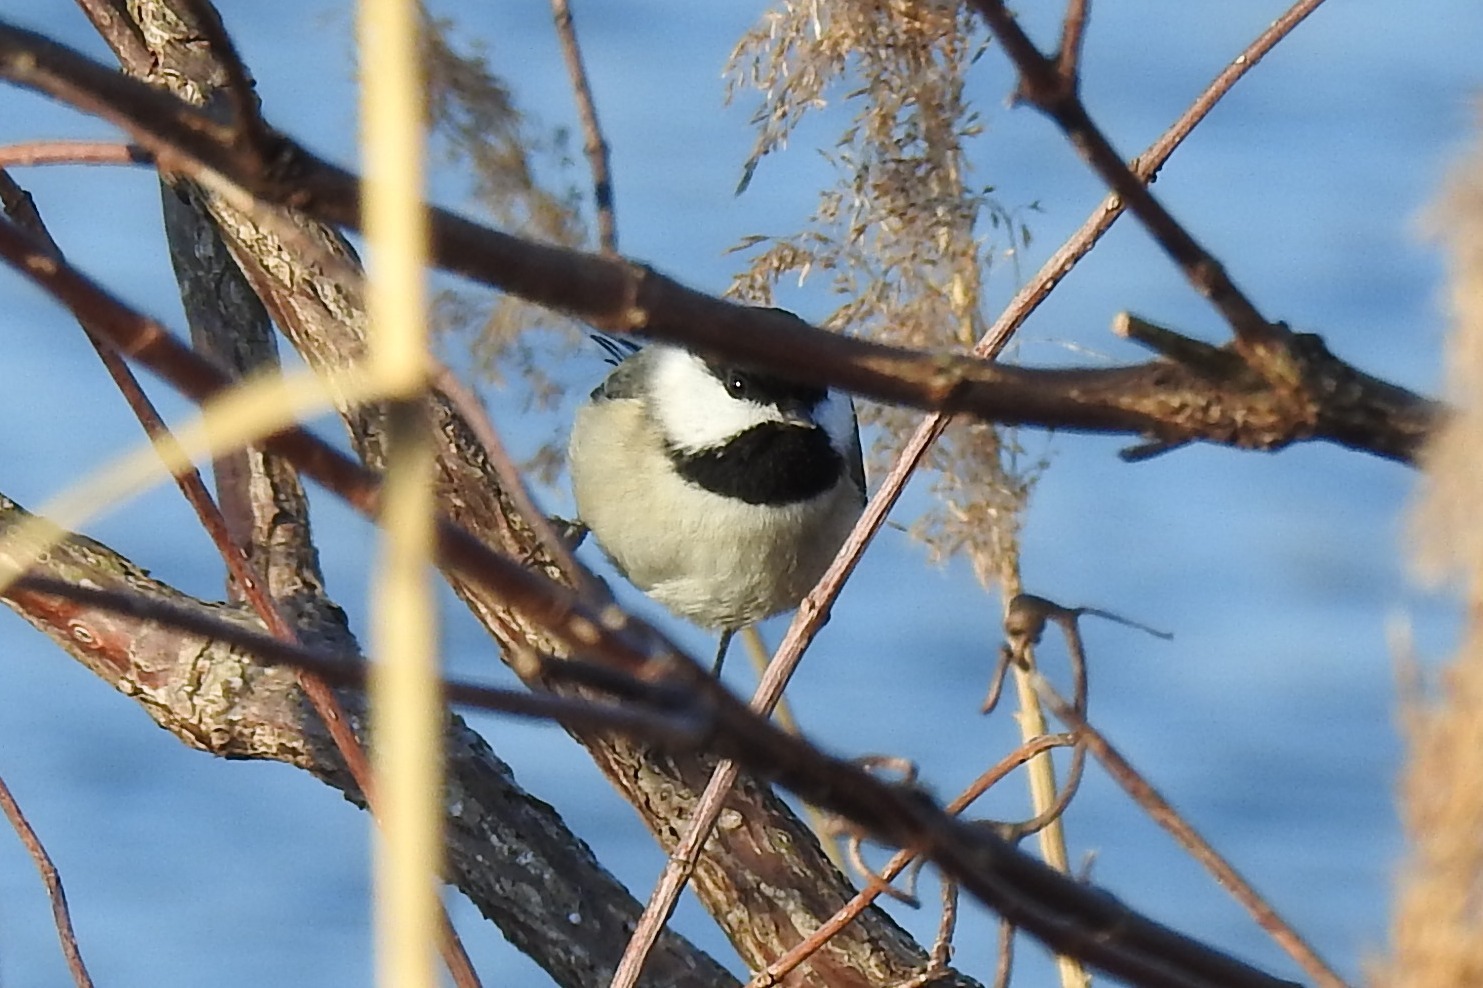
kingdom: Animalia
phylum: Chordata
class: Aves
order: Passeriformes
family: Paridae
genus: Poecile
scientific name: Poecile carolinensis
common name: Carolina chickadee
